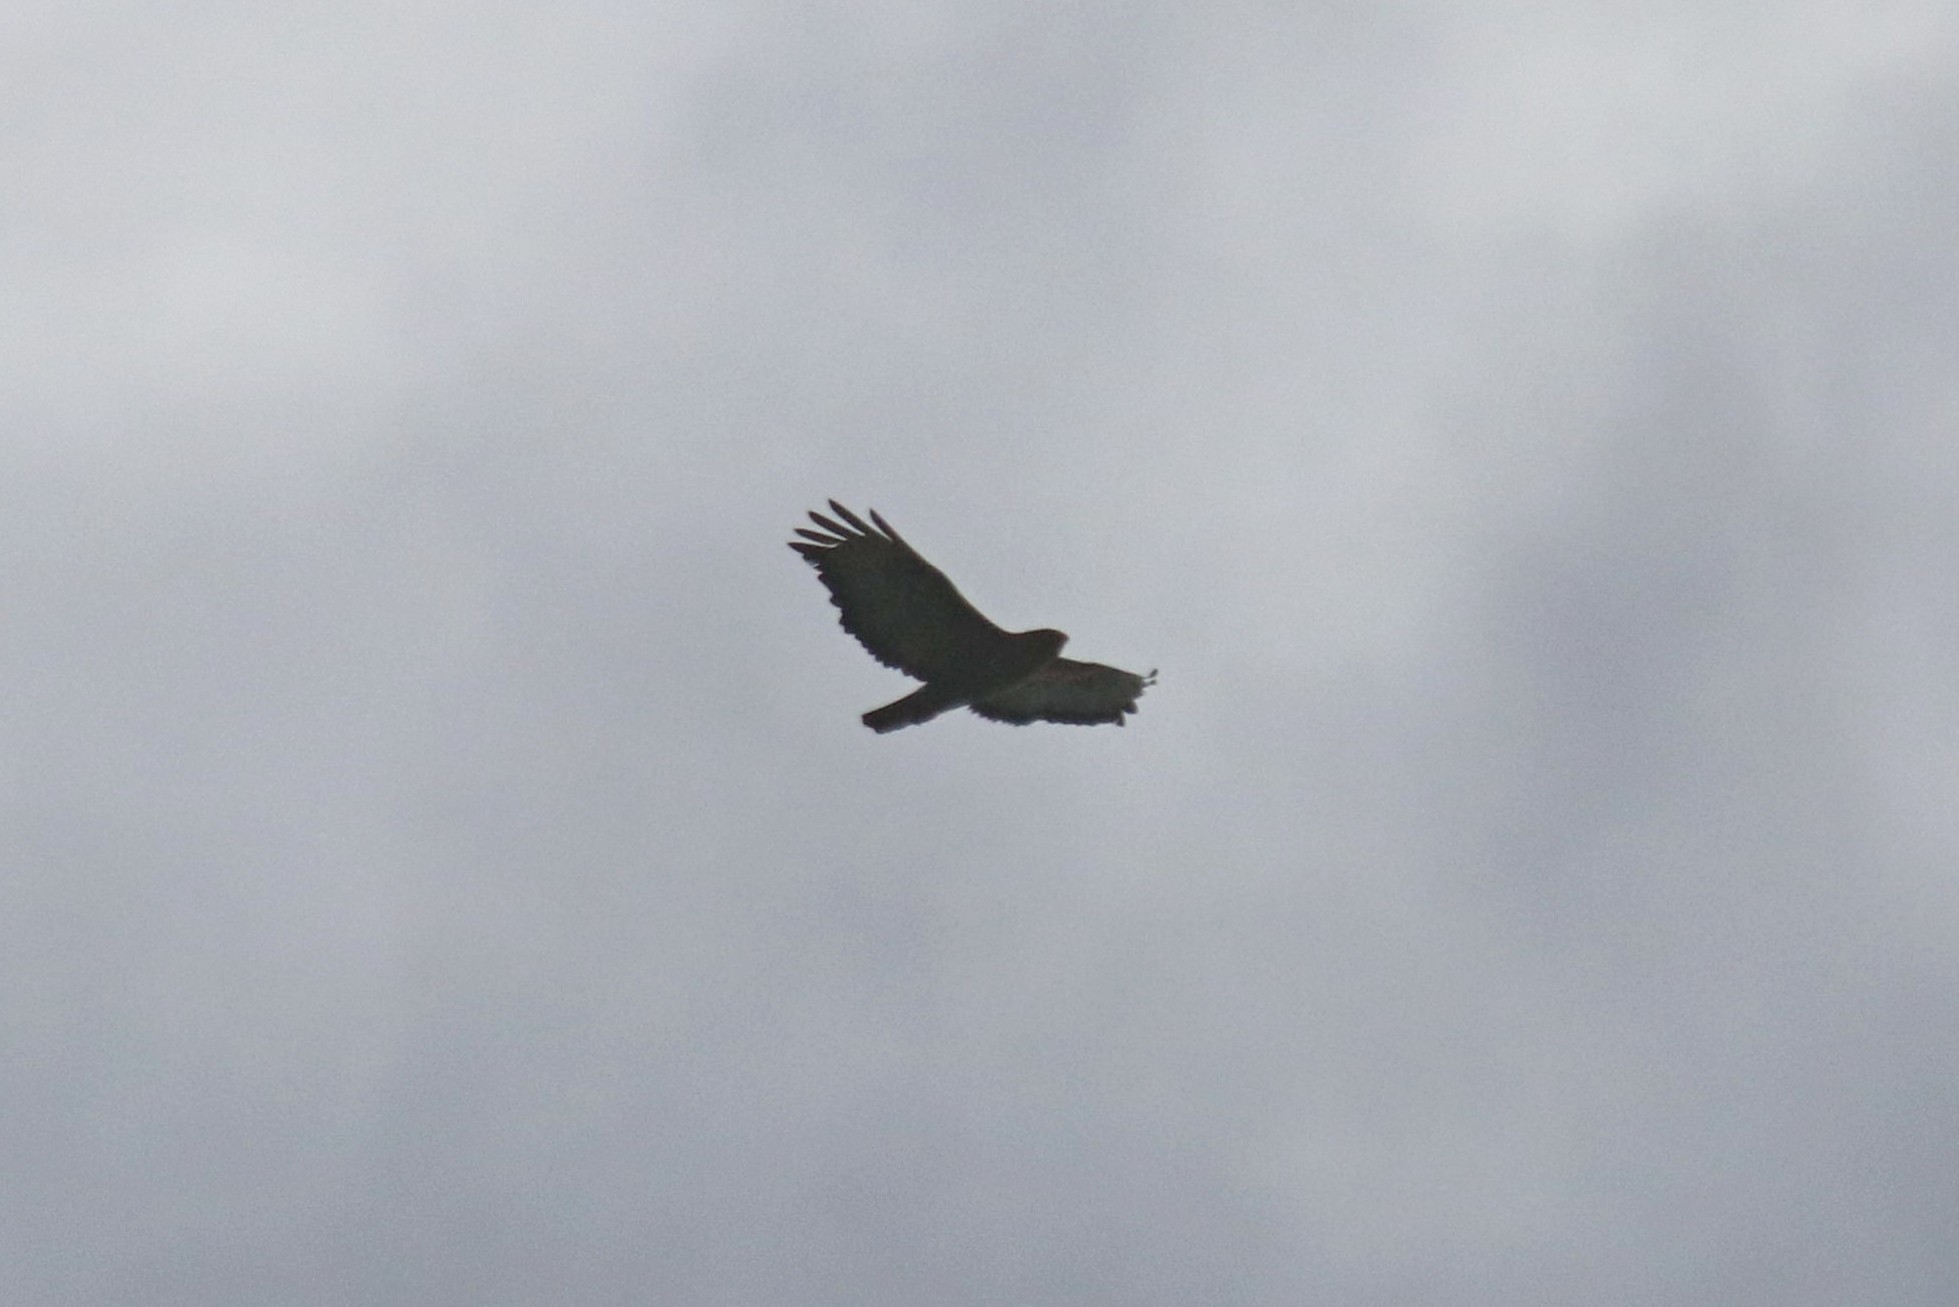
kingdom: Animalia
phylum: Chordata
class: Aves
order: Accipitriformes
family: Accipitridae
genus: Buteo
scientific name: Buteo buteo
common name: Common buzzard
